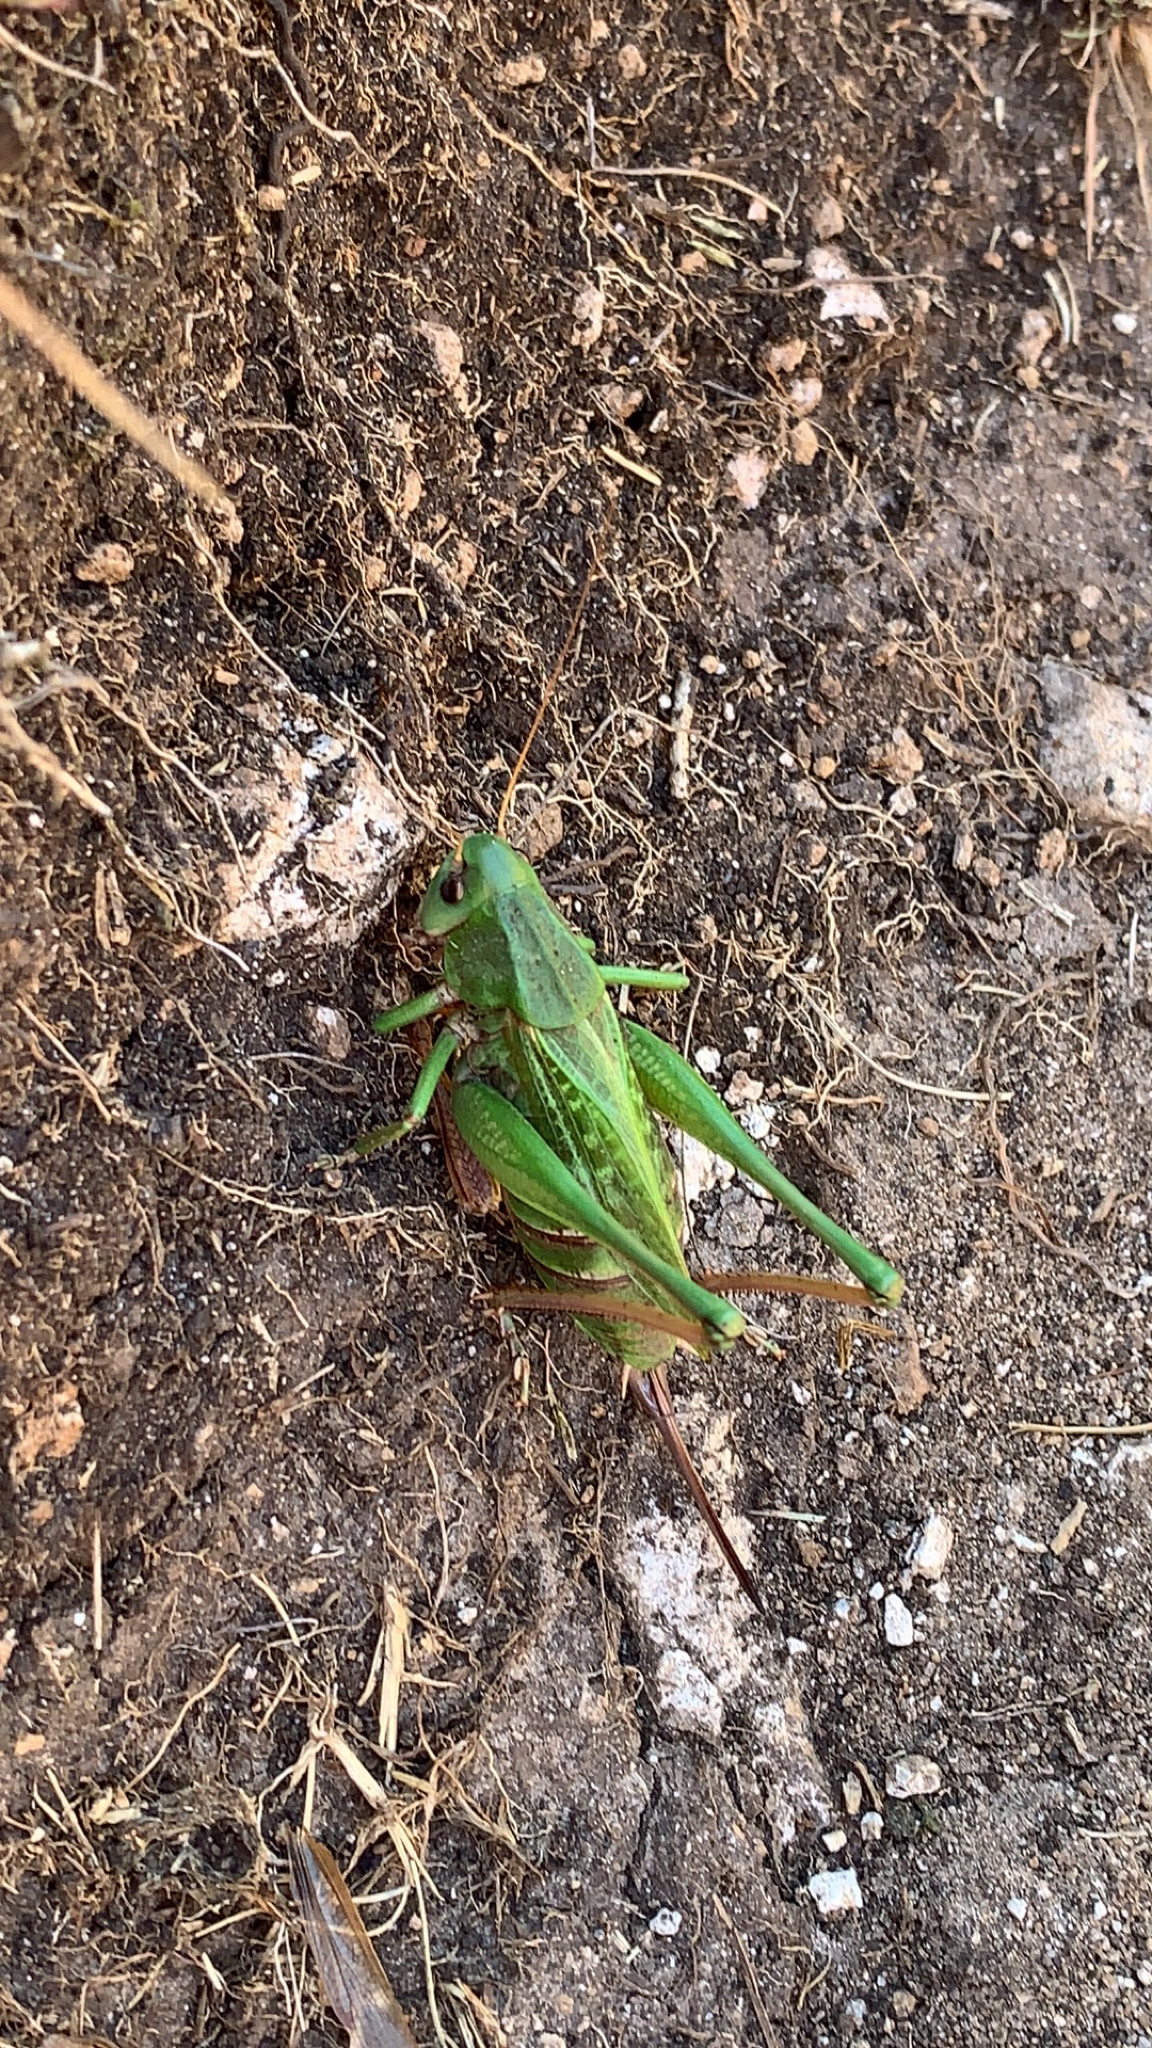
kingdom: Animalia
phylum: Arthropoda
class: Insecta
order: Orthoptera
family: Tettigoniidae
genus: Decticus
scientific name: Decticus verrucivorus
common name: Wart-biter
